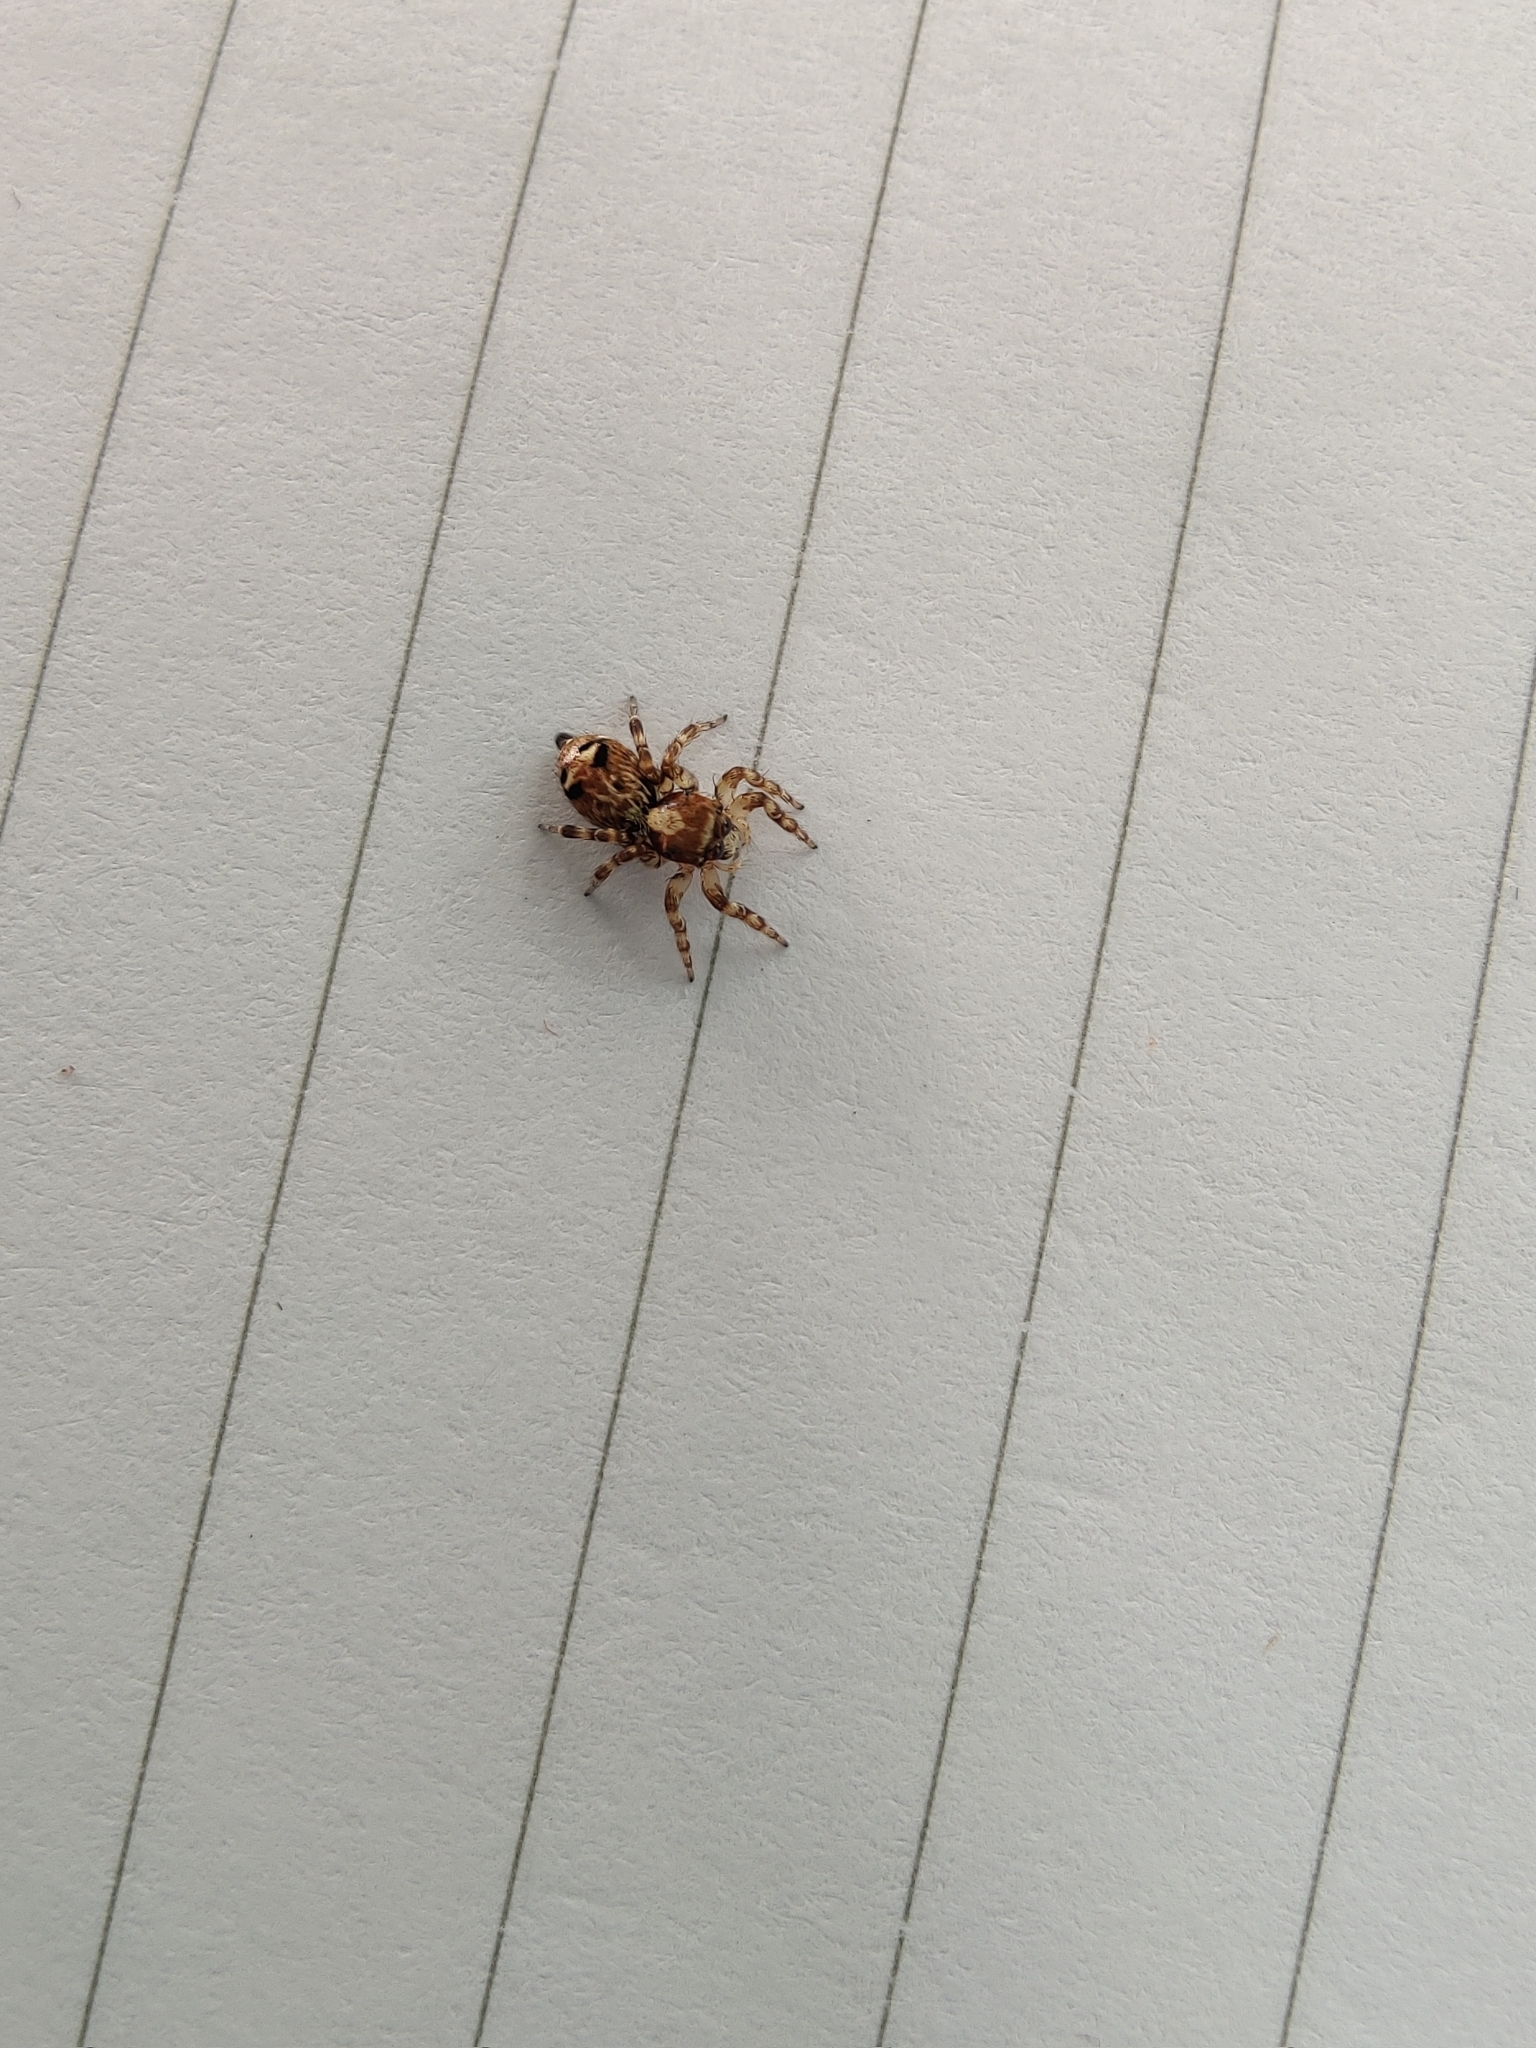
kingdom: Animalia
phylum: Arthropoda
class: Arachnida
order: Araneae
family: Salticidae
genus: Thyene
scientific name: Thyene imperialis
